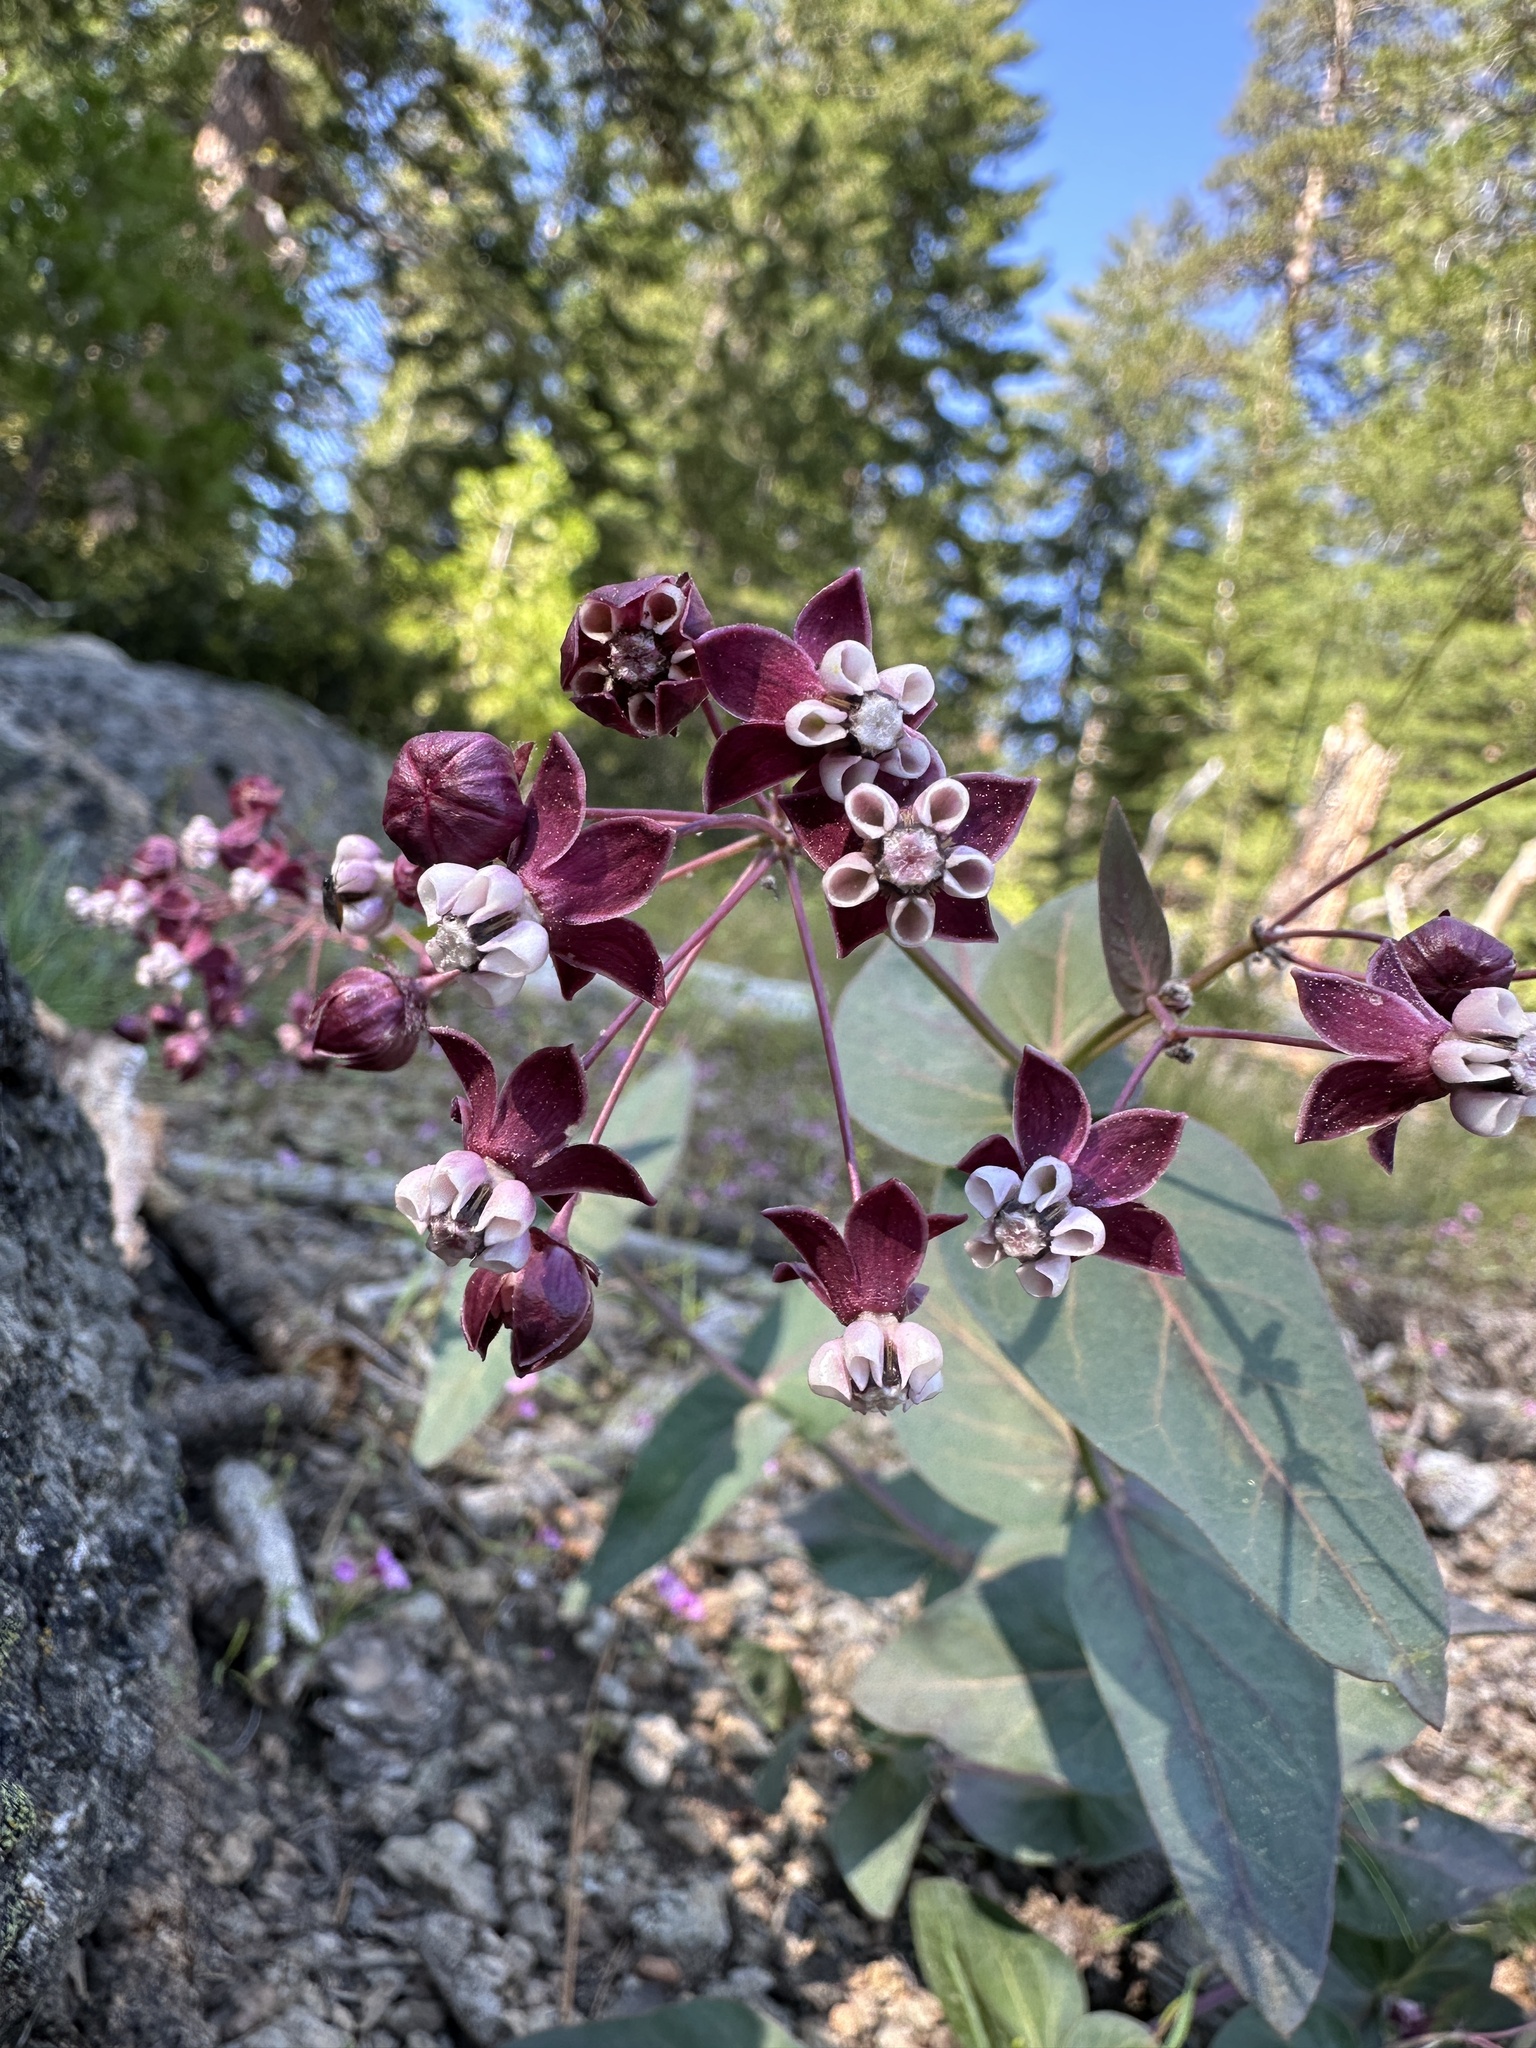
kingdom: Plantae
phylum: Tracheophyta
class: Magnoliopsida
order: Gentianales
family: Apocynaceae
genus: Asclepias
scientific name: Asclepias cordifolia
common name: Purple milkweed
